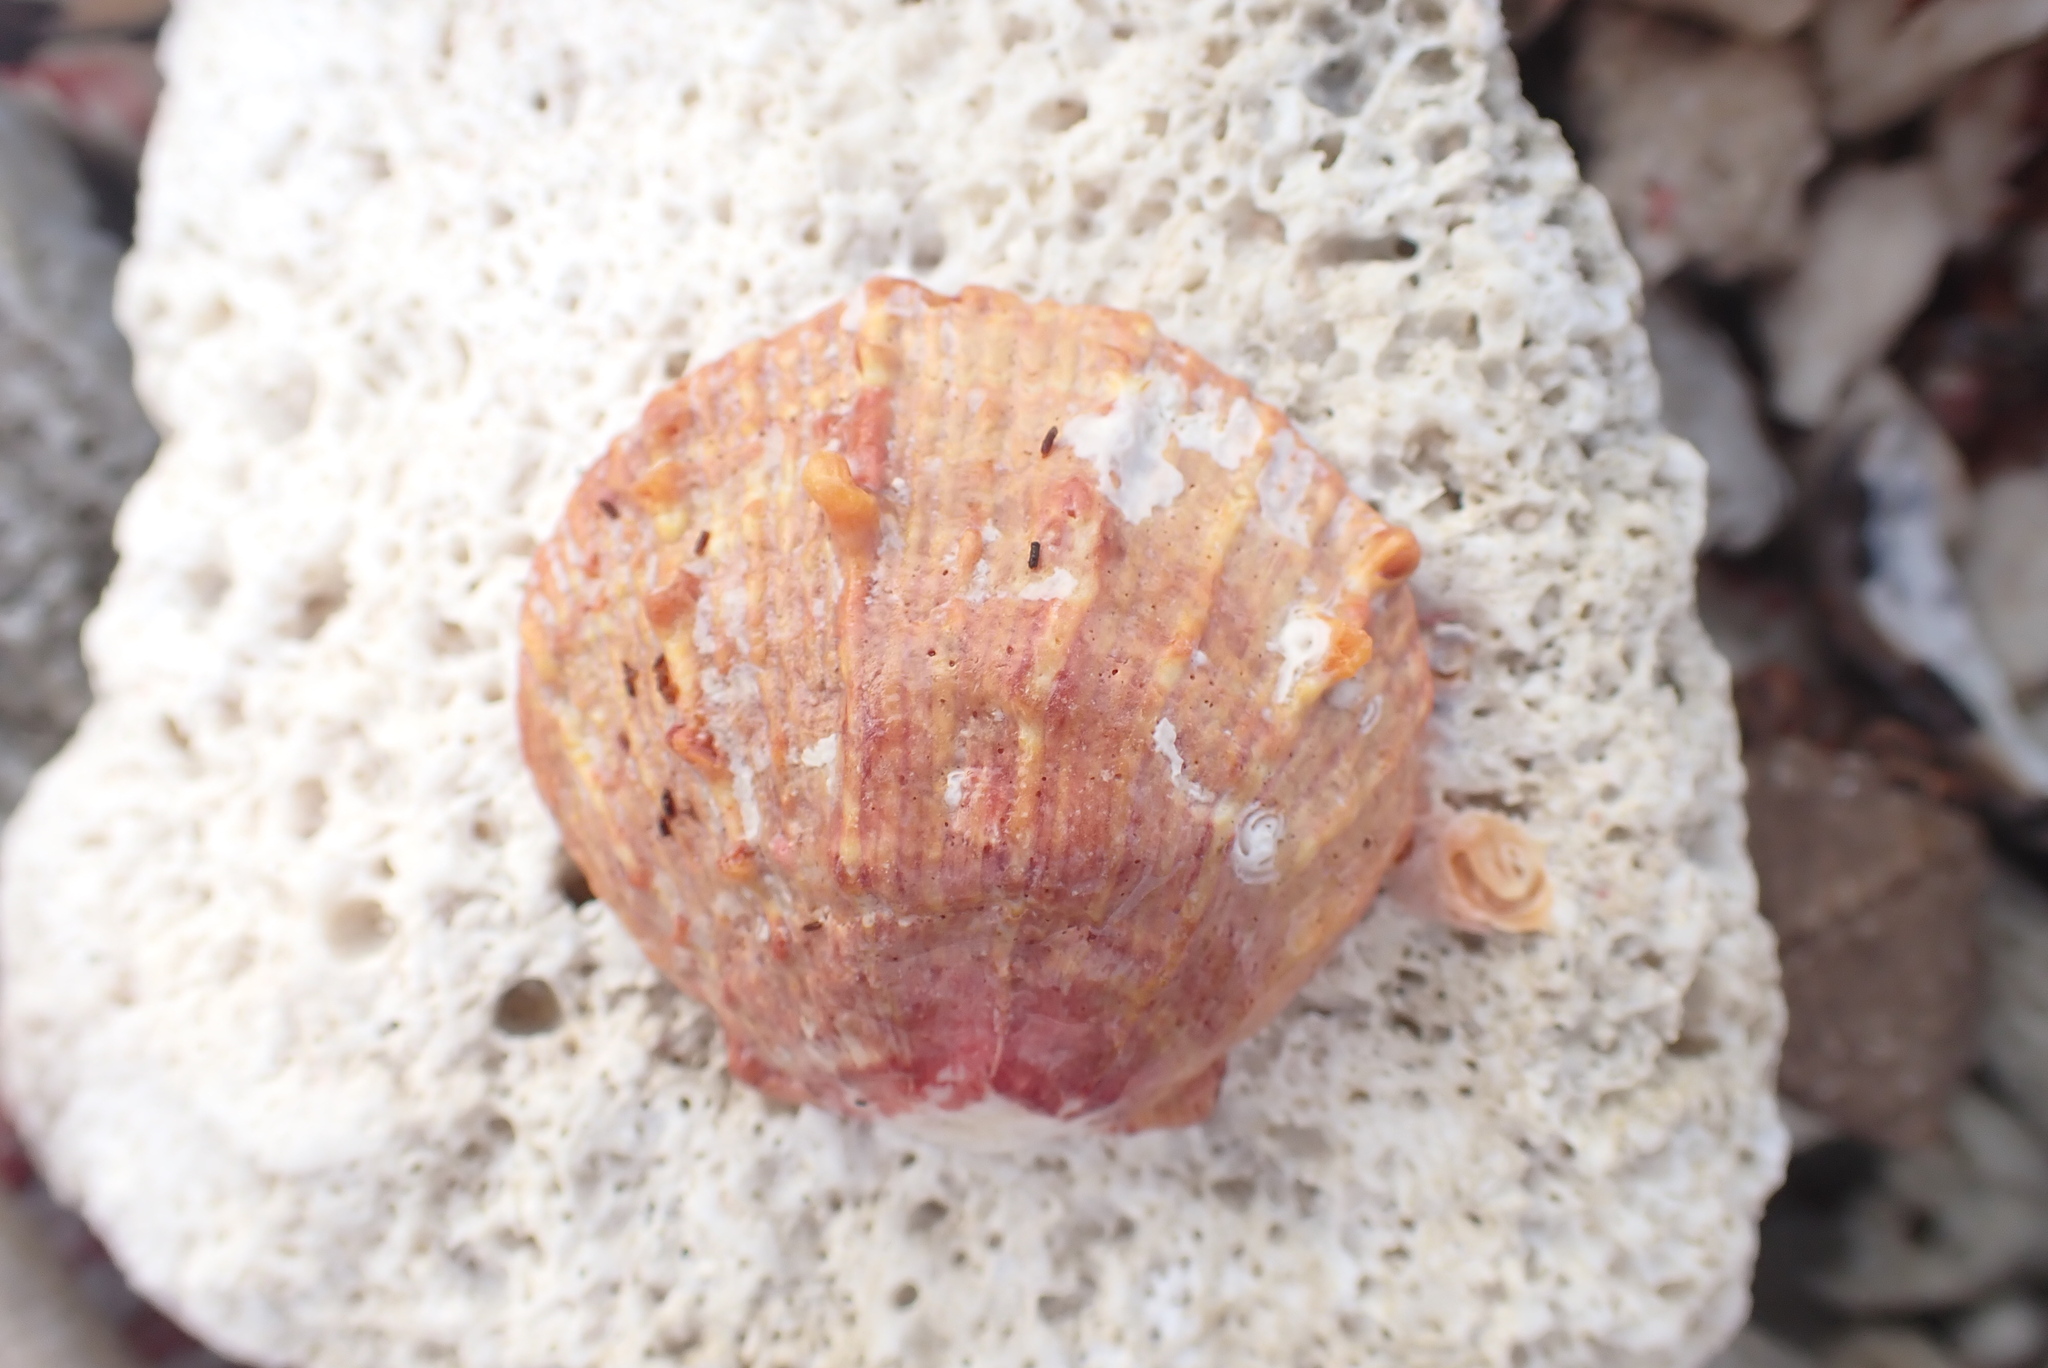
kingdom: Animalia
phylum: Mollusca
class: Bivalvia
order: Pectinida
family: Spondylidae
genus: Spondylus
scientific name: Spondylus tenuis
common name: Digitate thorny oyster
